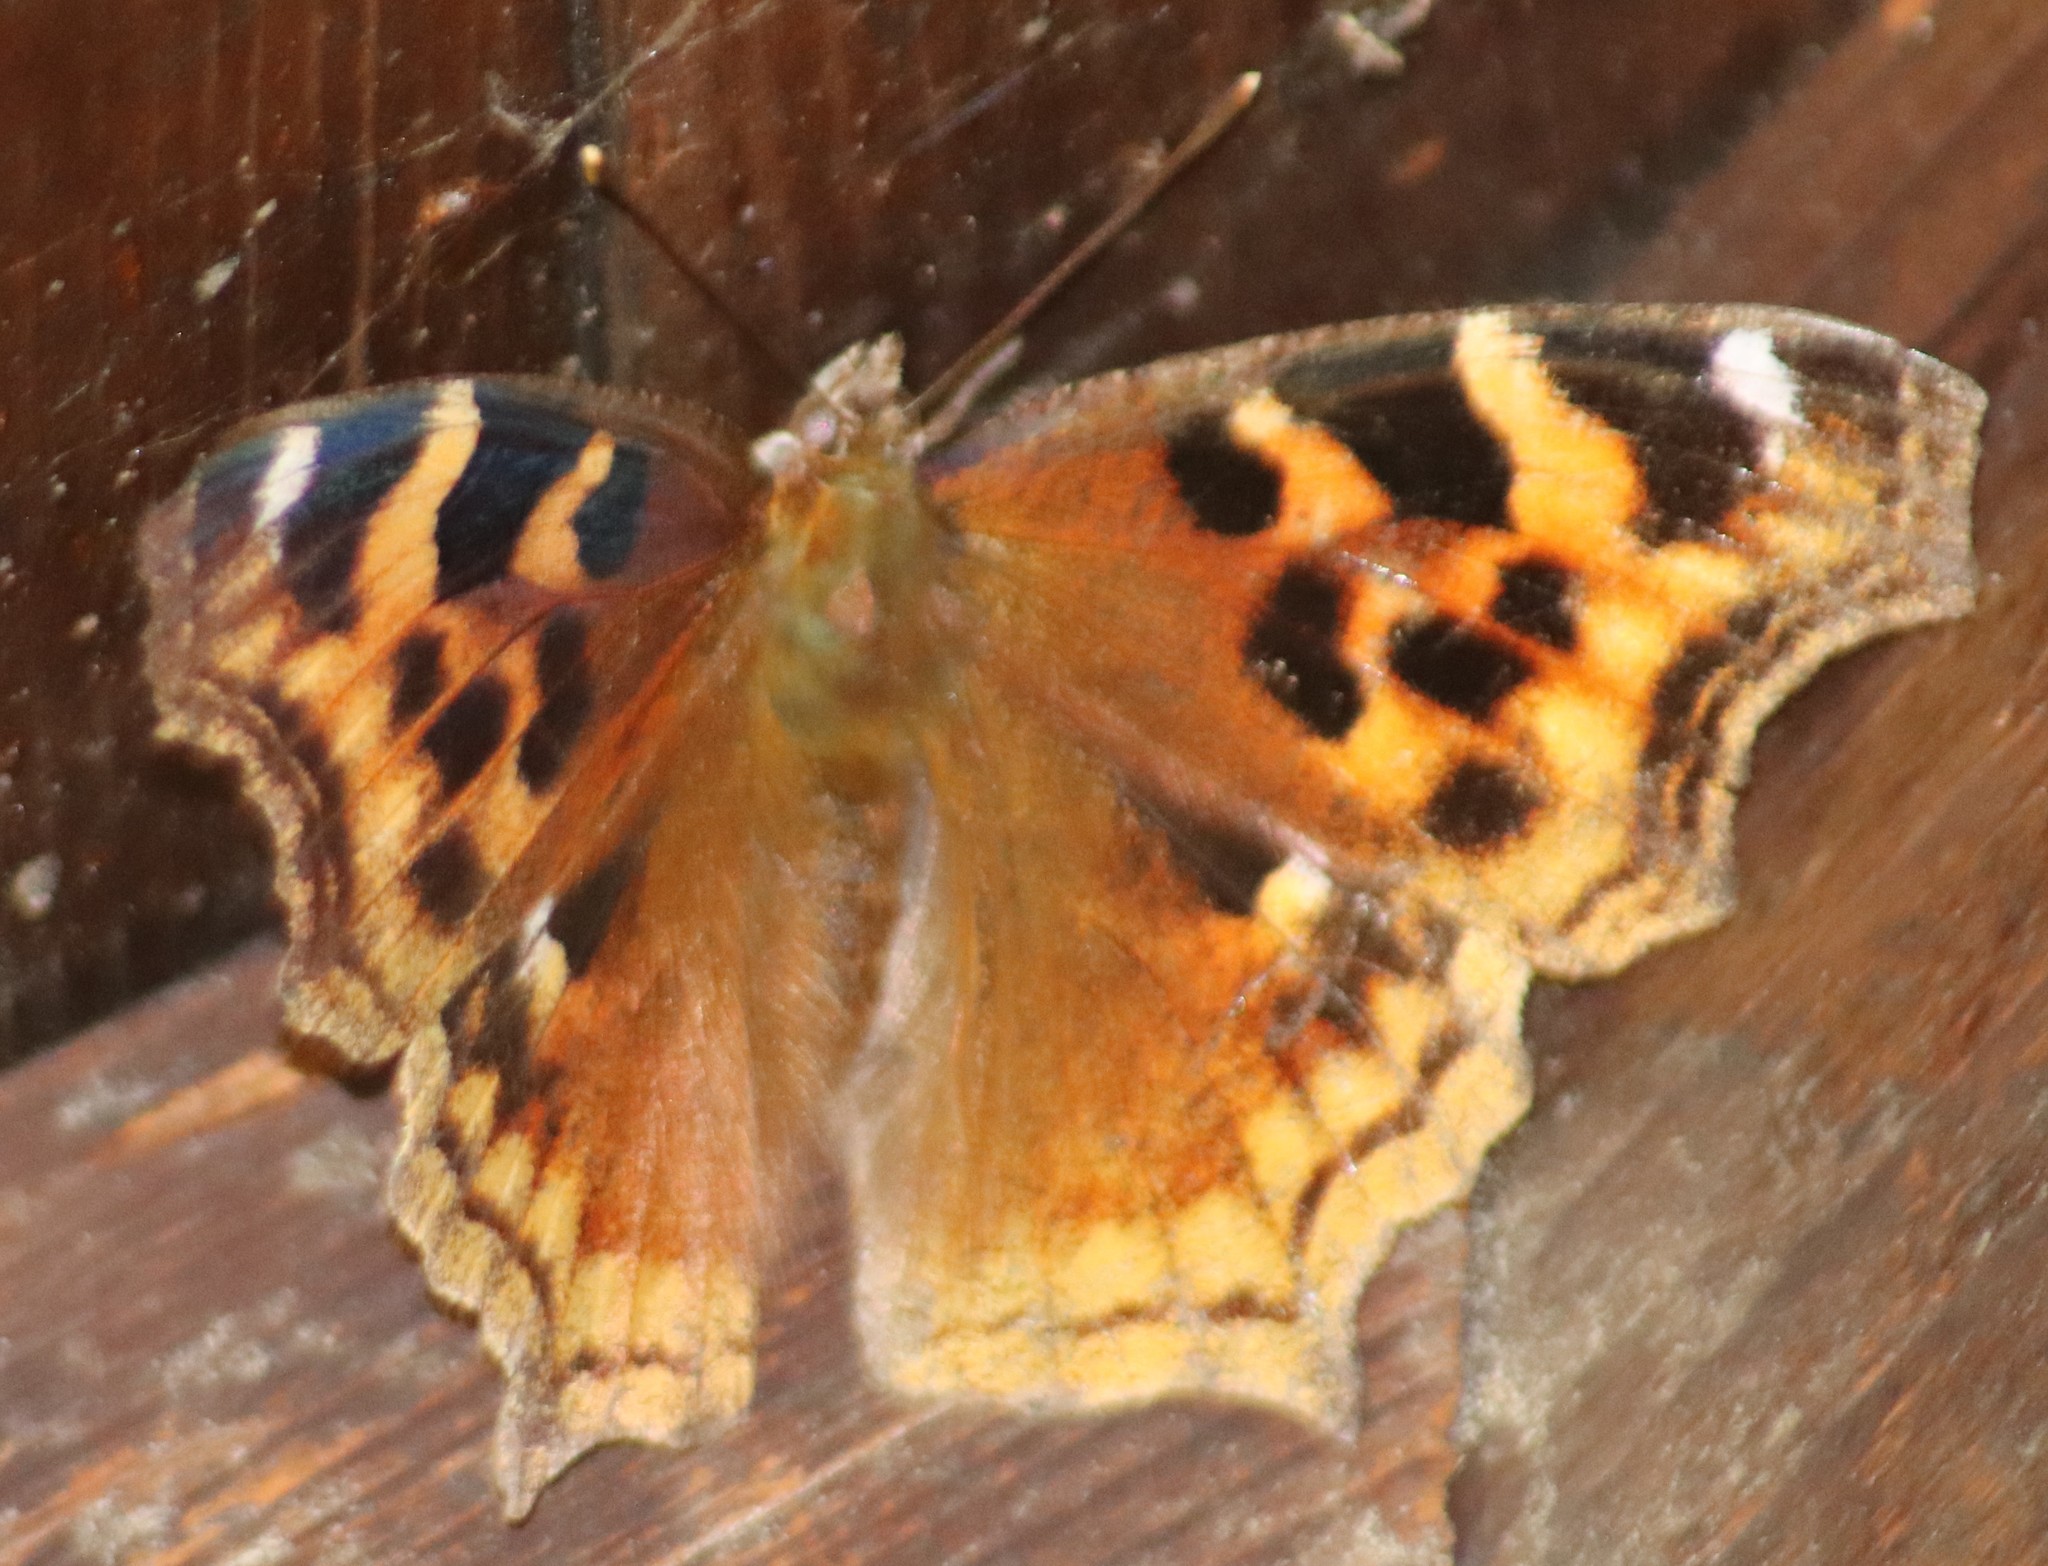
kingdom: Animalia
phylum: Arthropoda
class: Insecta
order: Lepidoptera
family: Nymphalidae
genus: Polygonia
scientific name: Polygonia vaualbum
